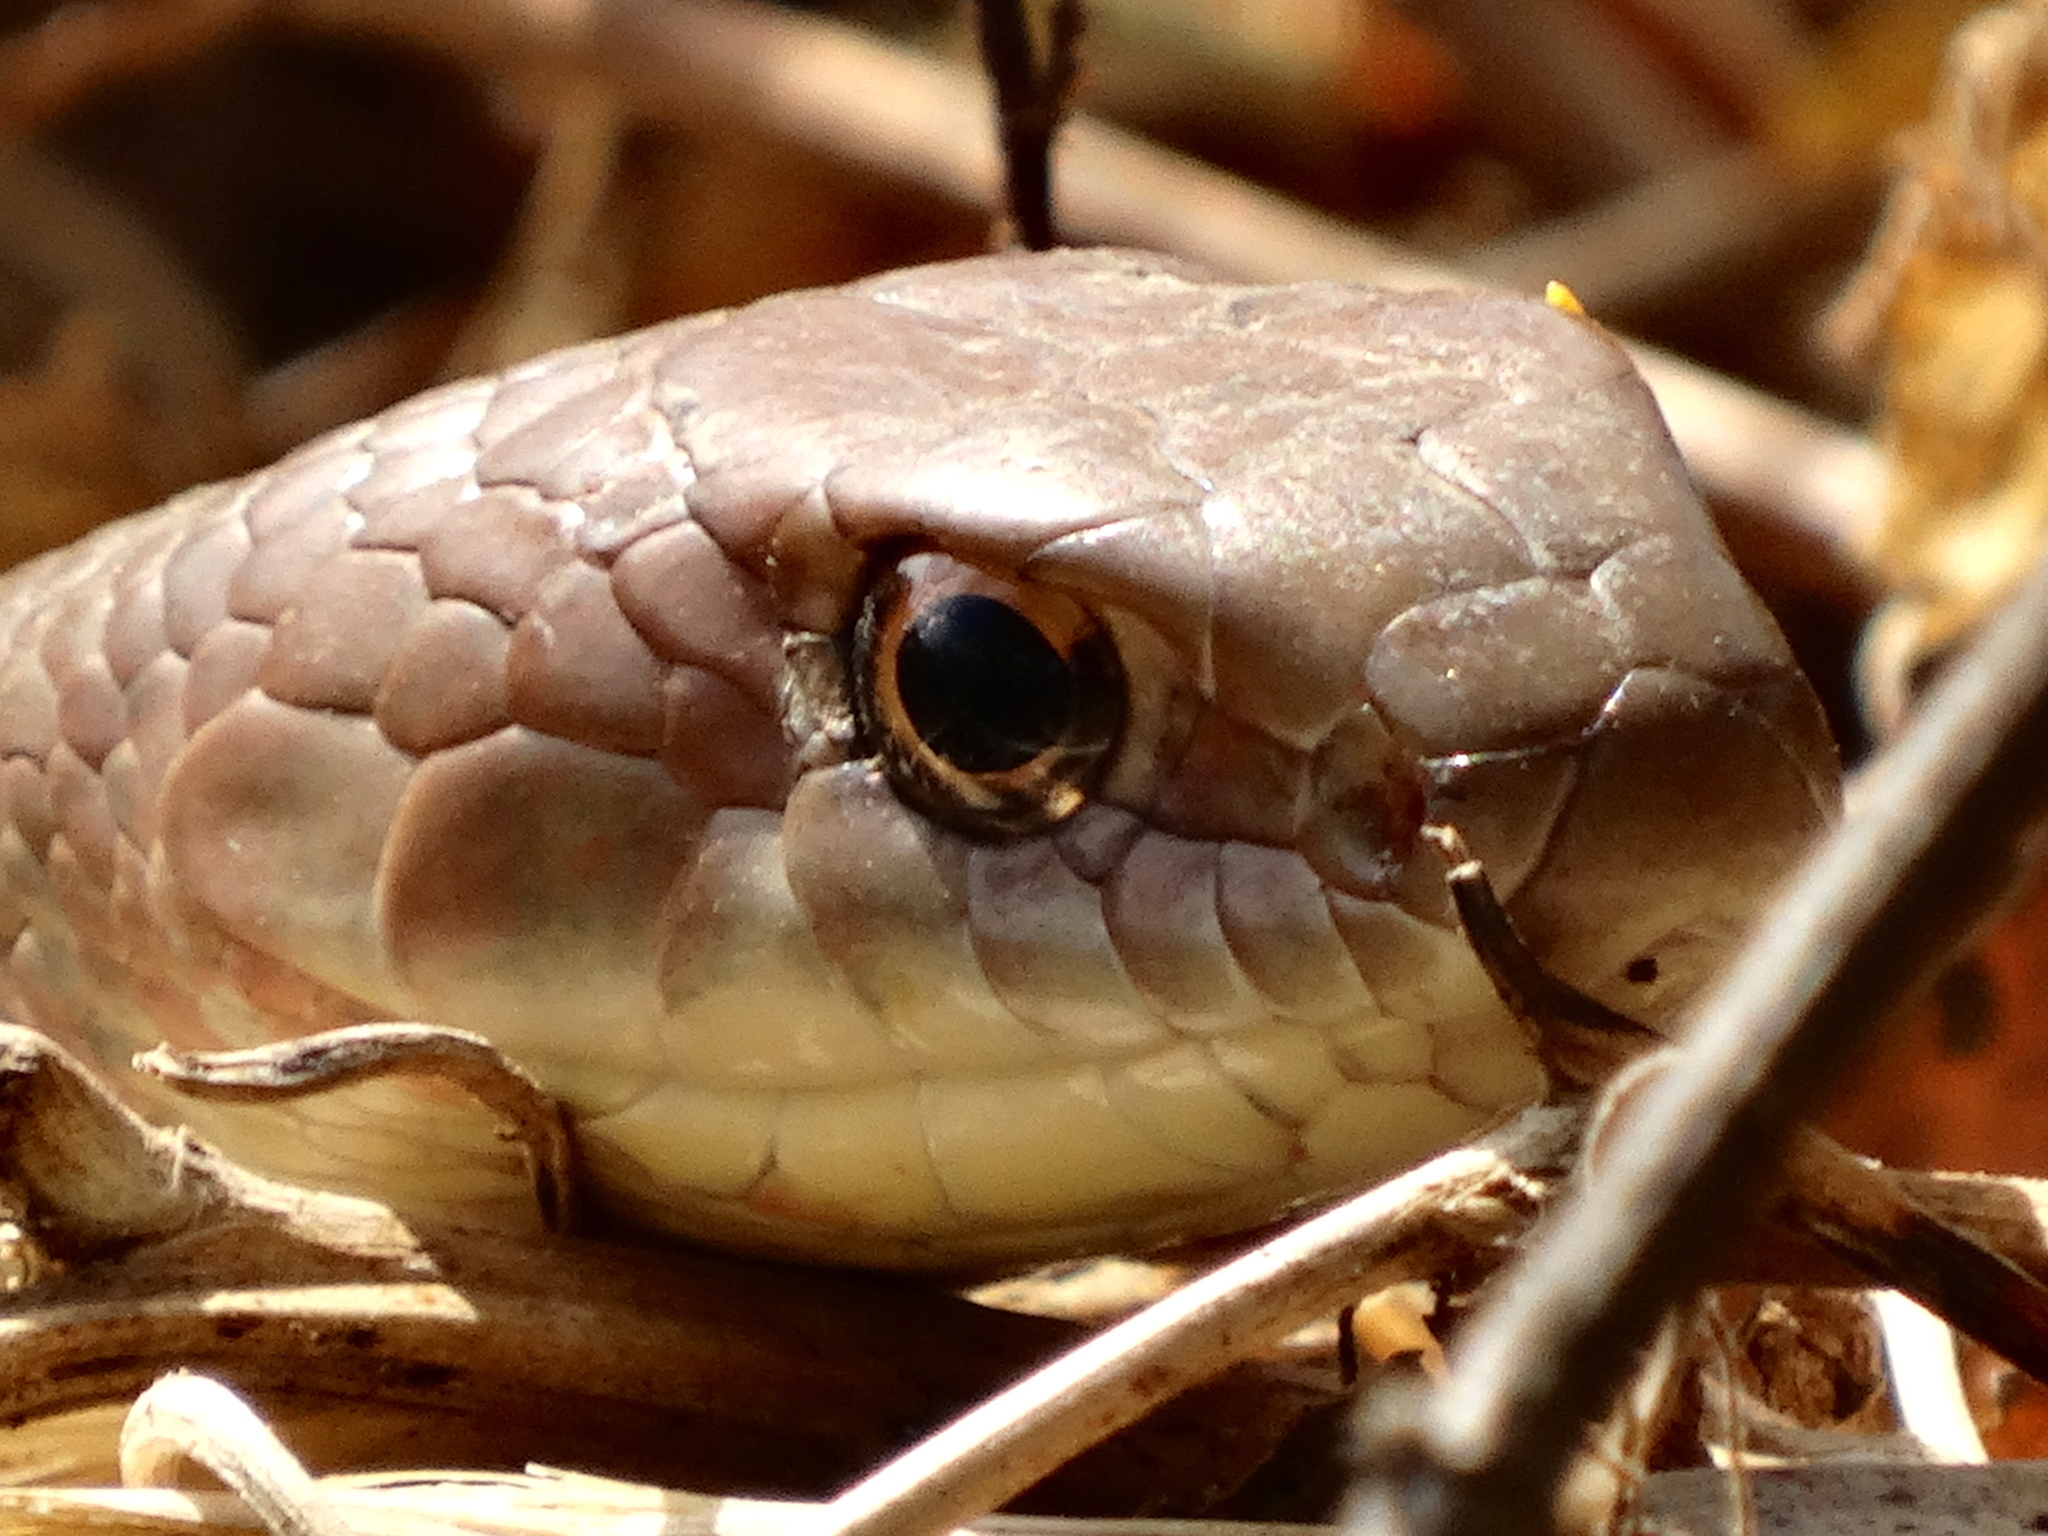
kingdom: Animalia
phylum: Chordata
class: Squamata
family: Colubridae
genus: Masticophis
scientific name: Masticophis mentovarius
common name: Neotropical whip snake
